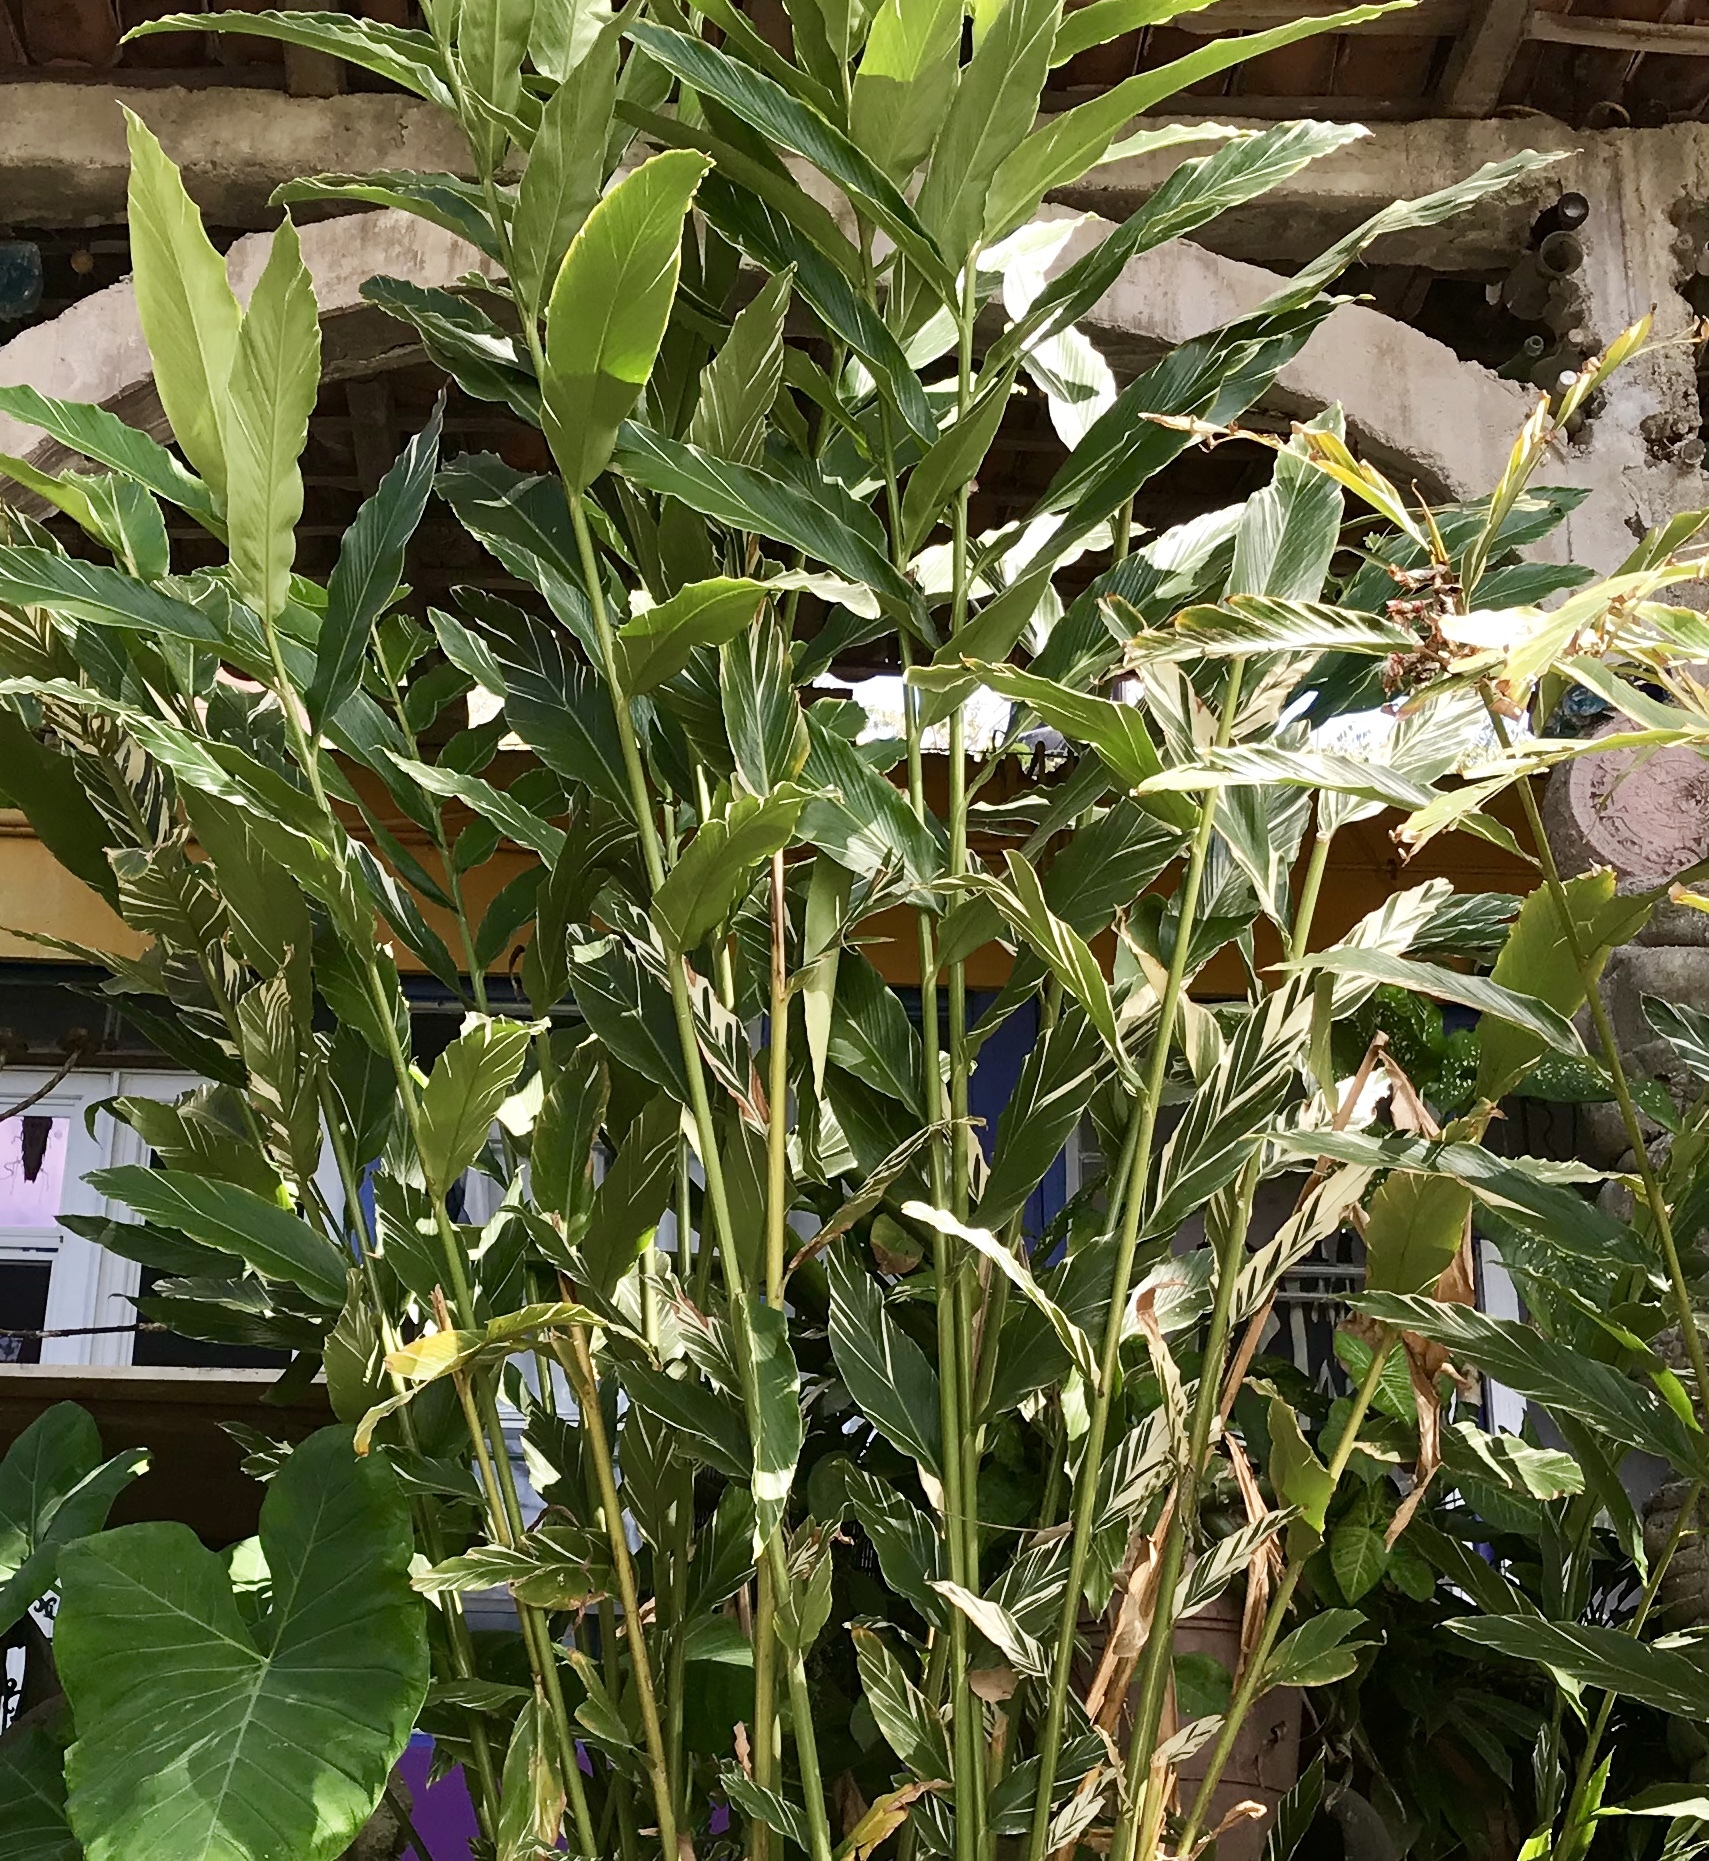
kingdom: Plantae
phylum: Tracheophyta
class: Liliopsida
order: Zingiberales
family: Zingiberaceae
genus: Alpinia
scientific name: Alpinia zerumbet
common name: Shellplant
